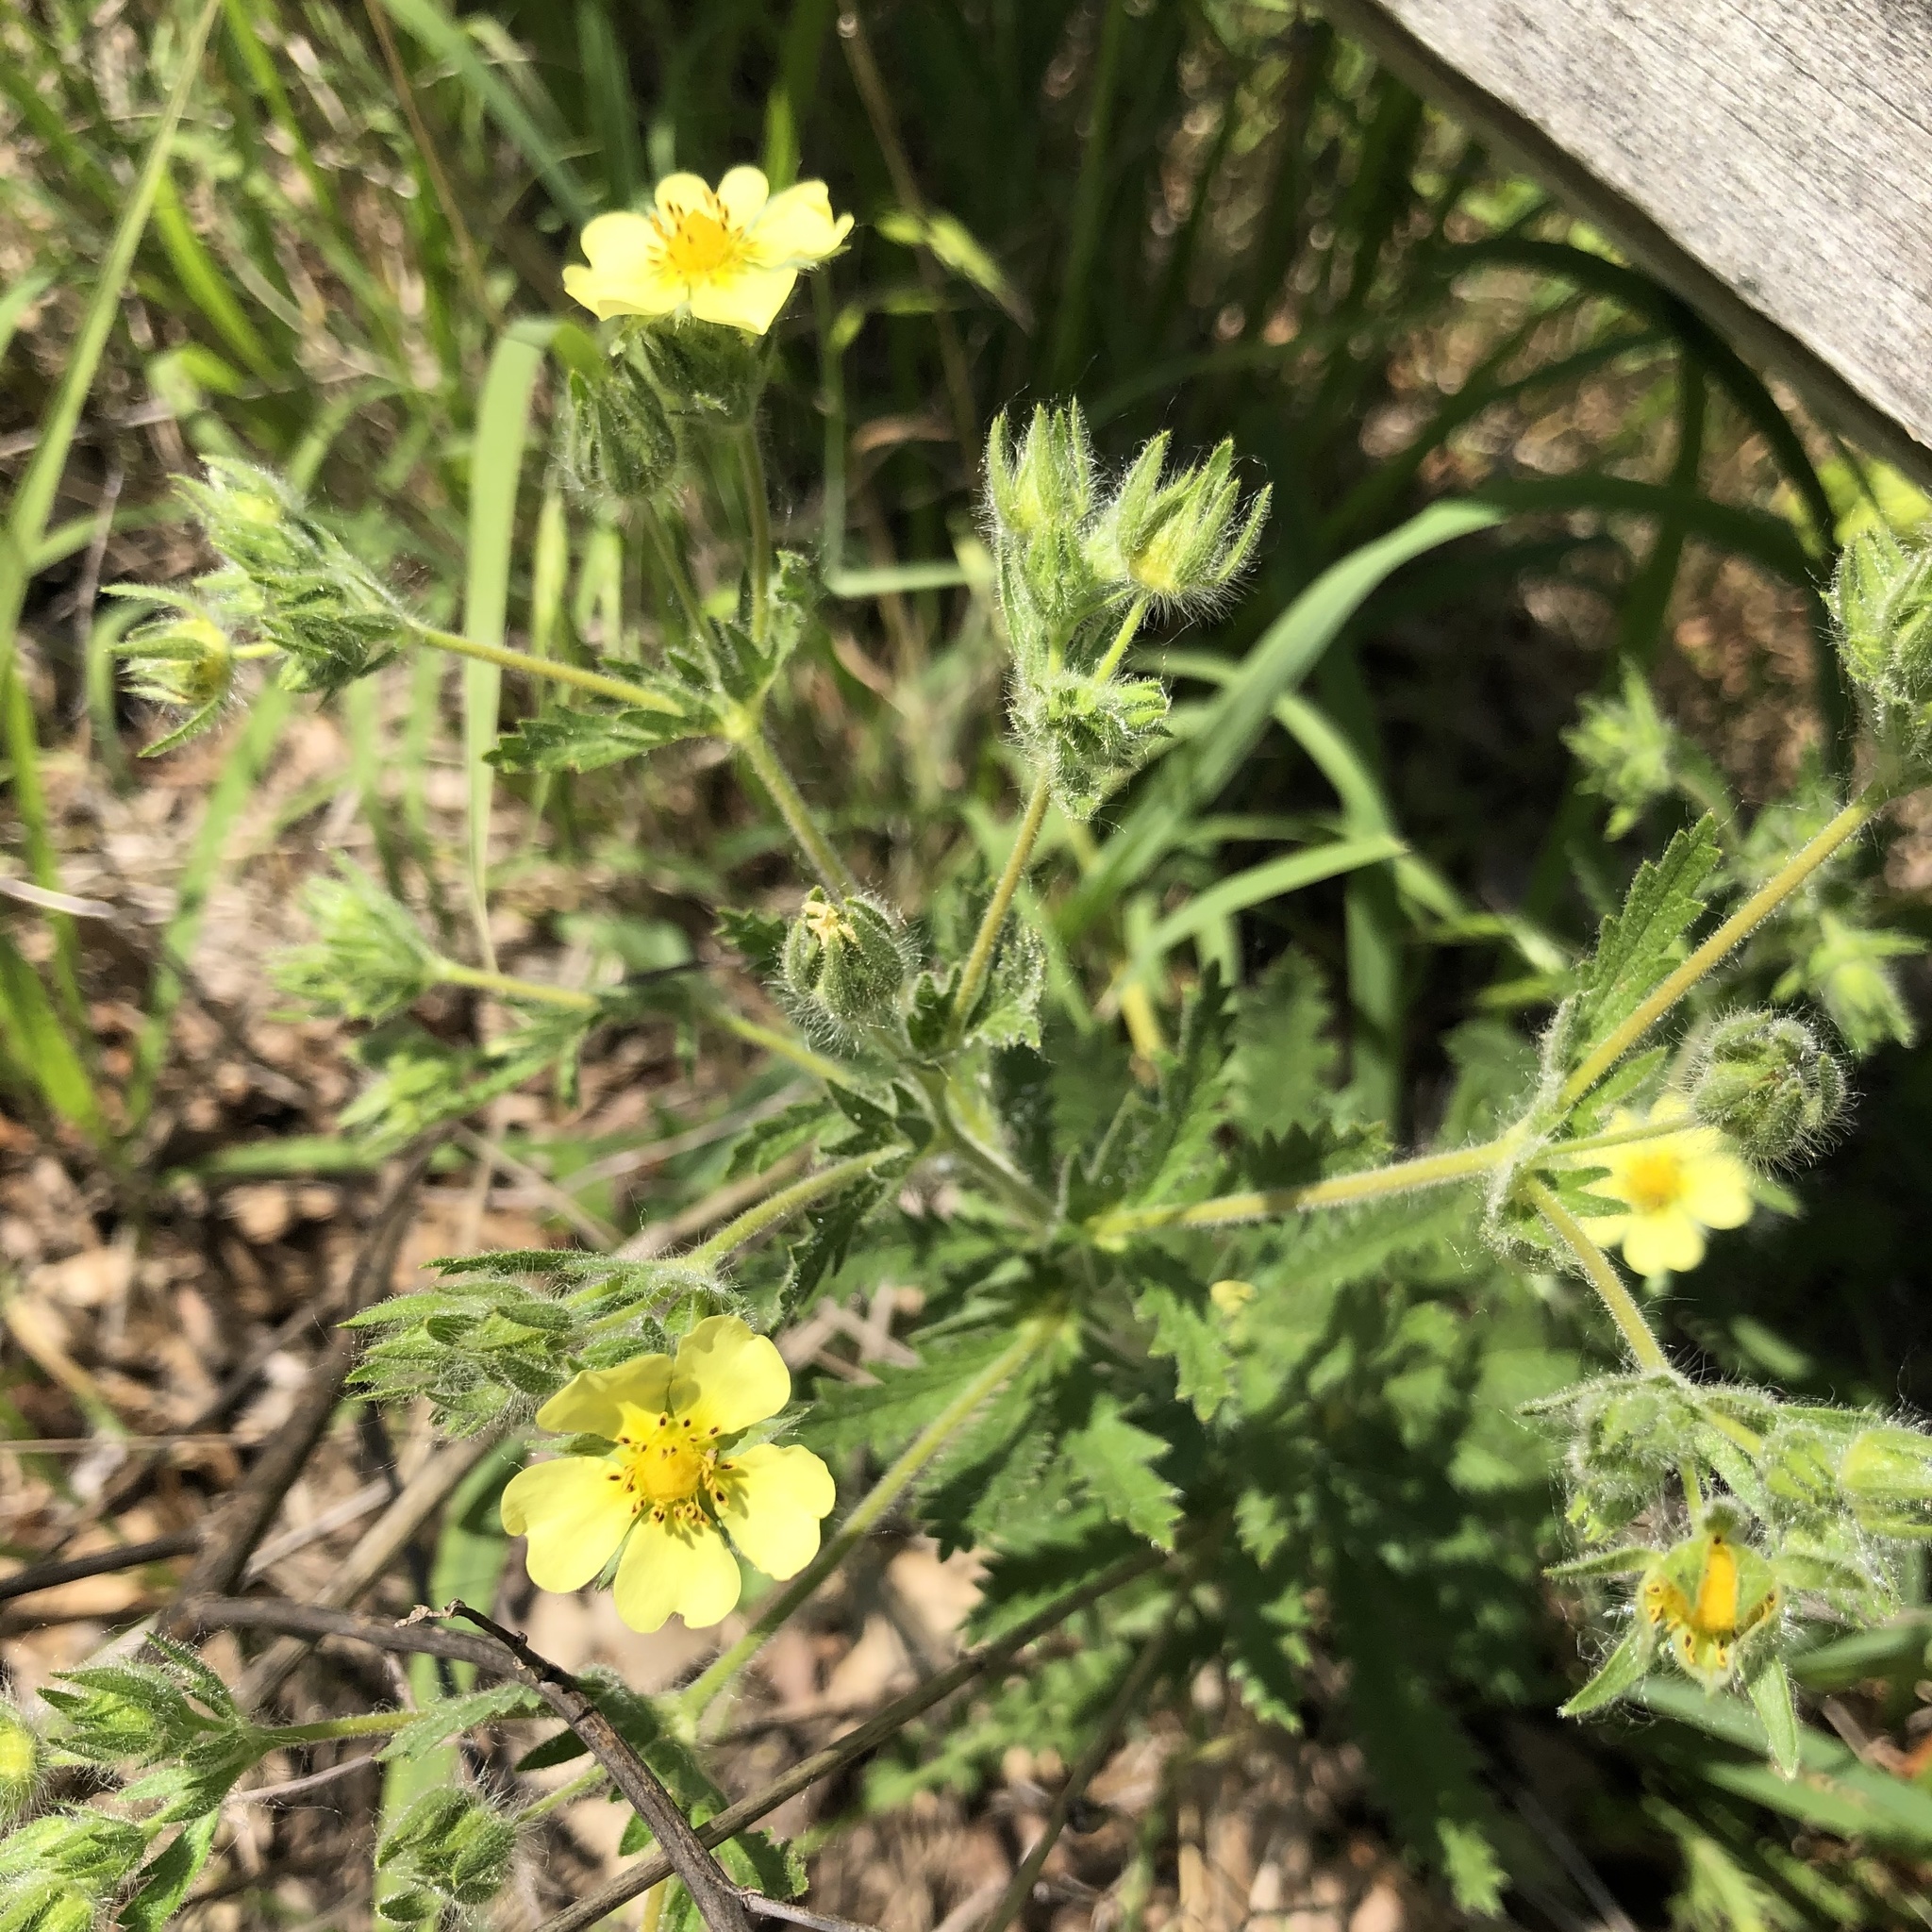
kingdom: Plantae
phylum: Tracheophyta
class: Magnoliopsida
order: Rosales
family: Rosaceae
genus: Potentilla
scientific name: Potentilla recta
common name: Sulphur cinquefoil
